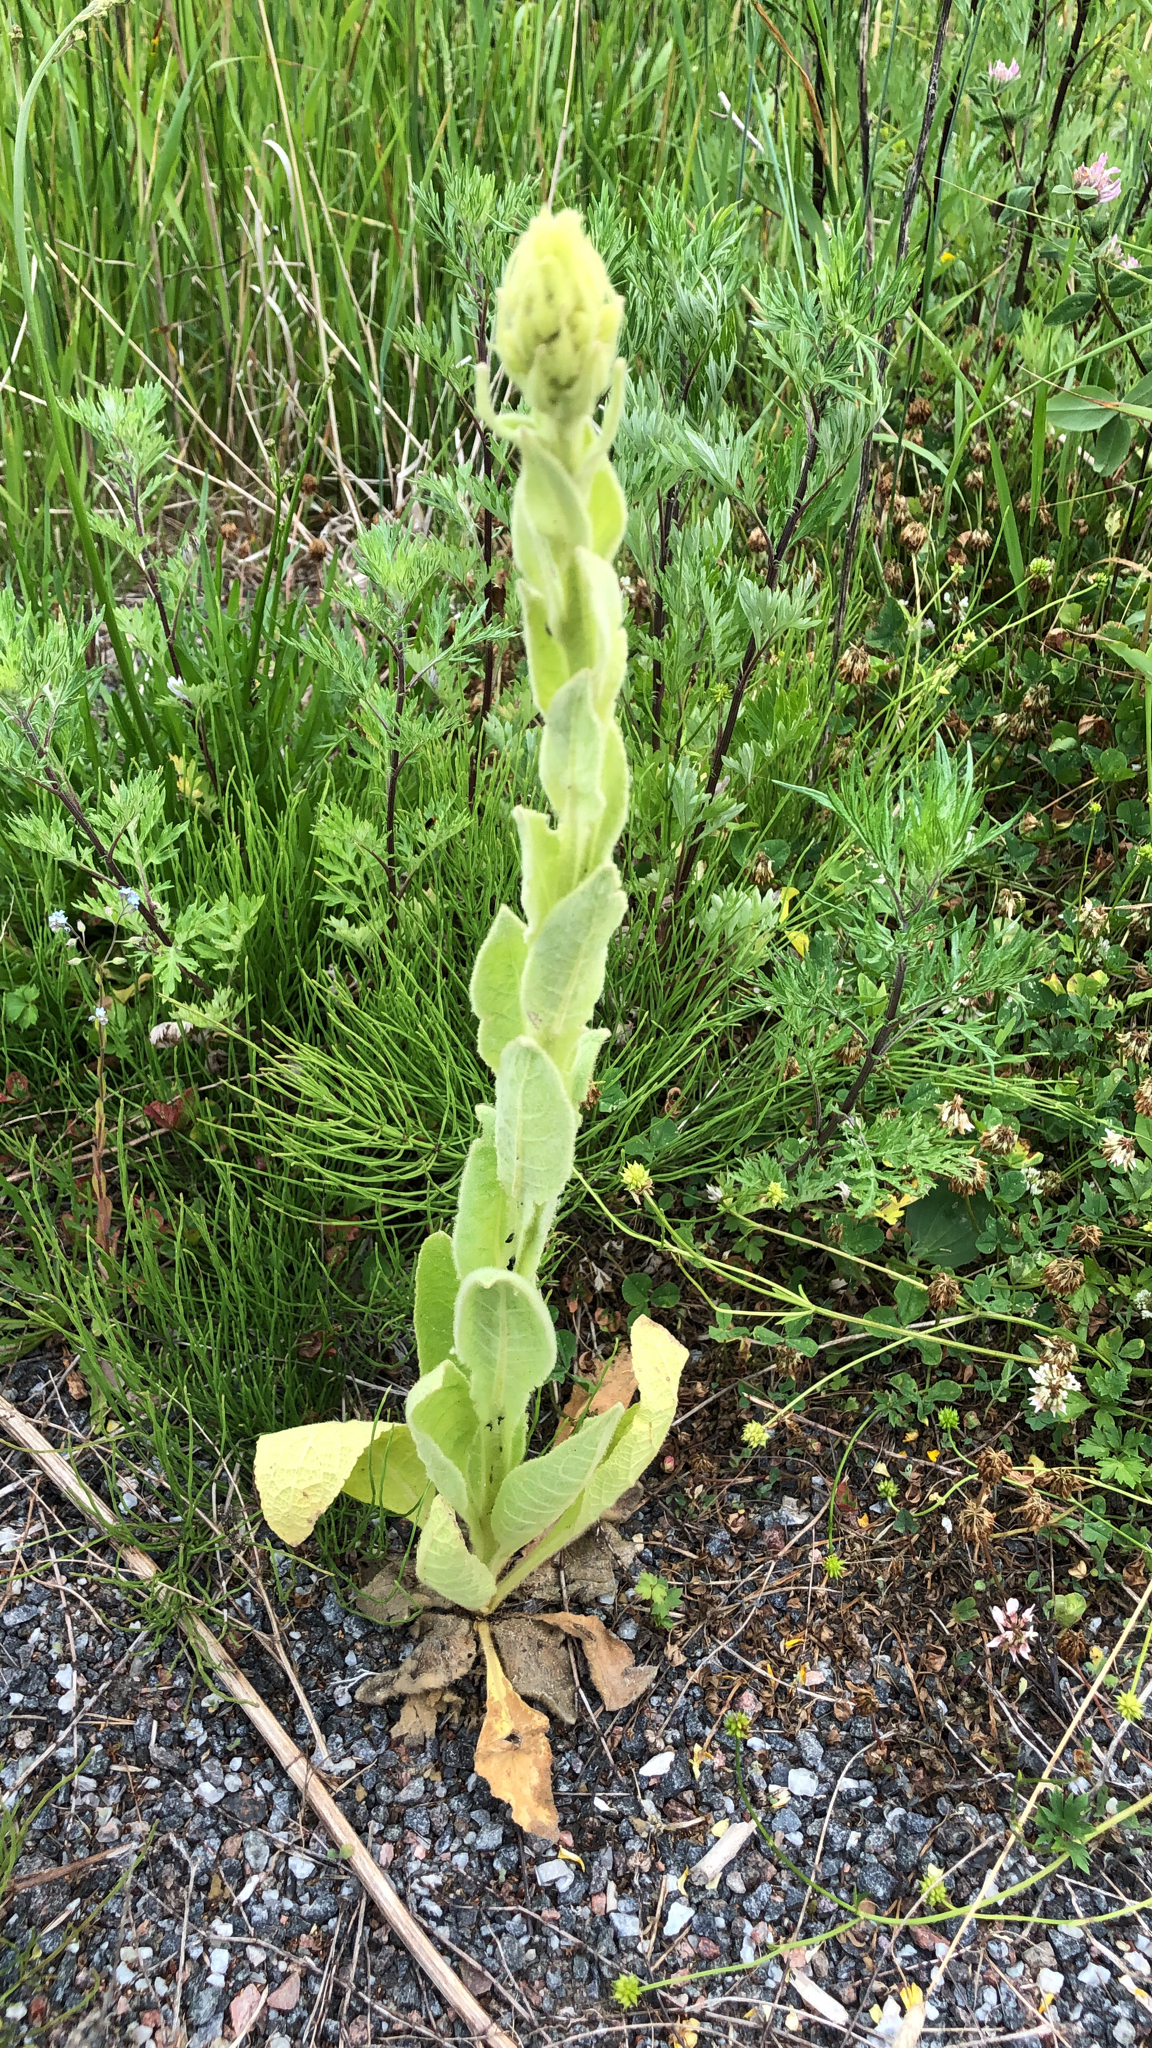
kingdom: Plantae
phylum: Tracheophyta
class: Magnoliopsida
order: Lamiales
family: Scrophulariaceae
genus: Verbascum
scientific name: Verbascum thapsus
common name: Common mullein
